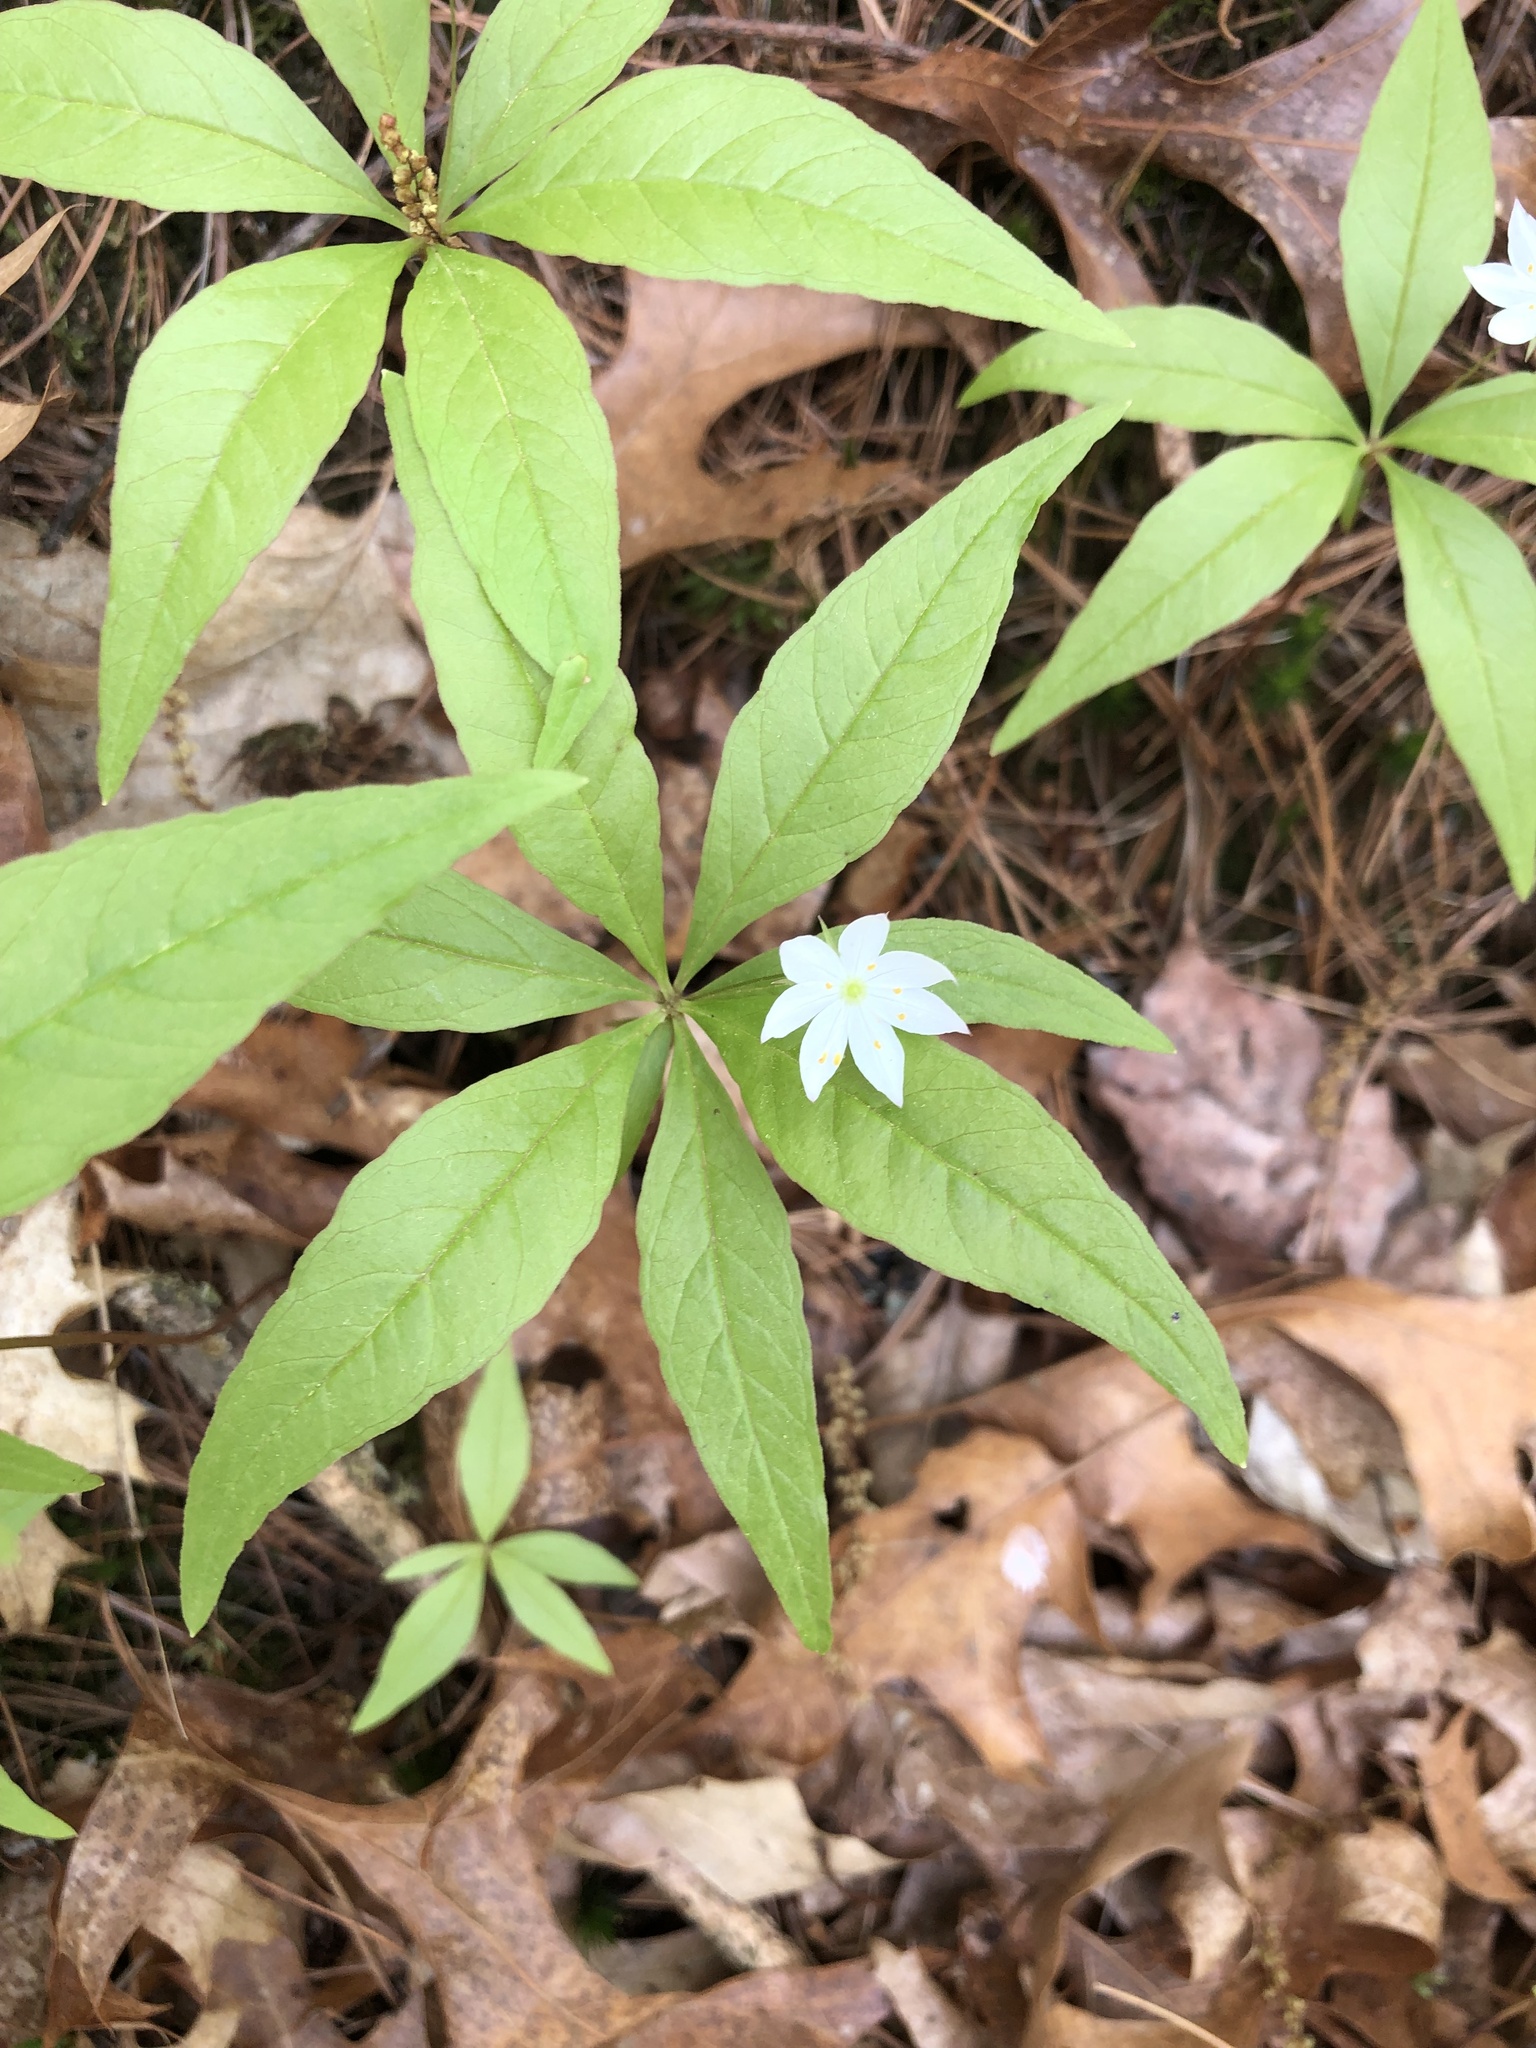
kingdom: Plantae
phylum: Tracheophyta
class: Magnoliopsida
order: Ericales
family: Primulaceae
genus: Lysimachia
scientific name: Lysimachia borealis
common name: American starflower
